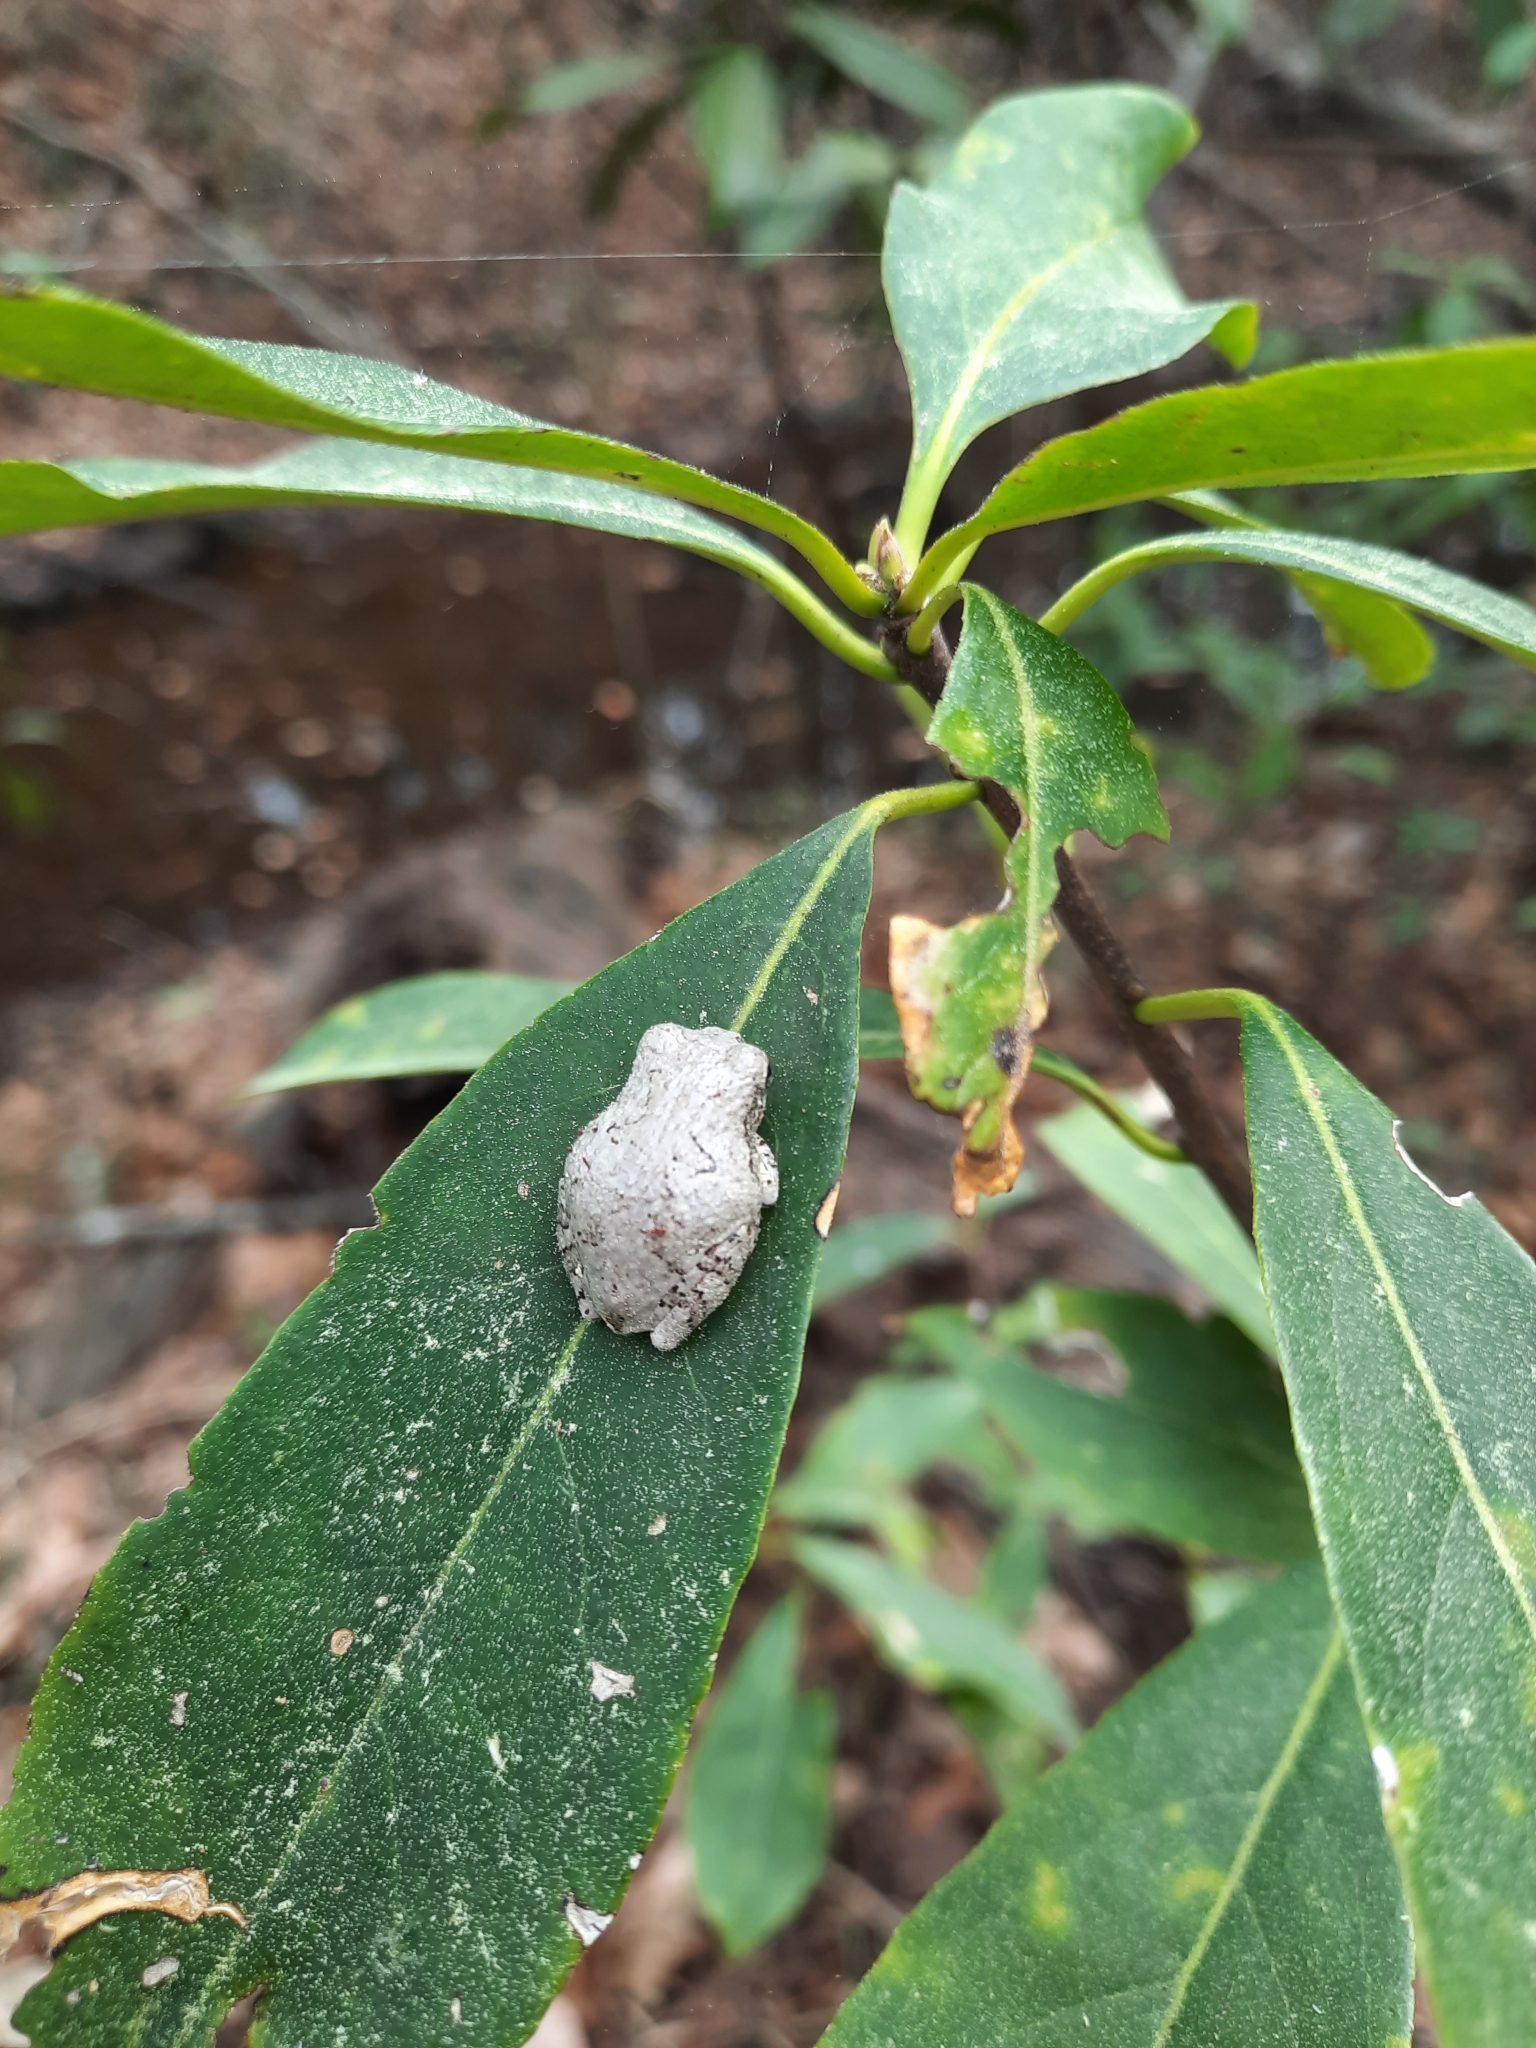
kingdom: Animalia
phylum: Chordata
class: Amphibia
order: Anura
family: Hylidae
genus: Dryophytes
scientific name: Dryophytes chrysoscelis
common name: Cope's gray treefrog
